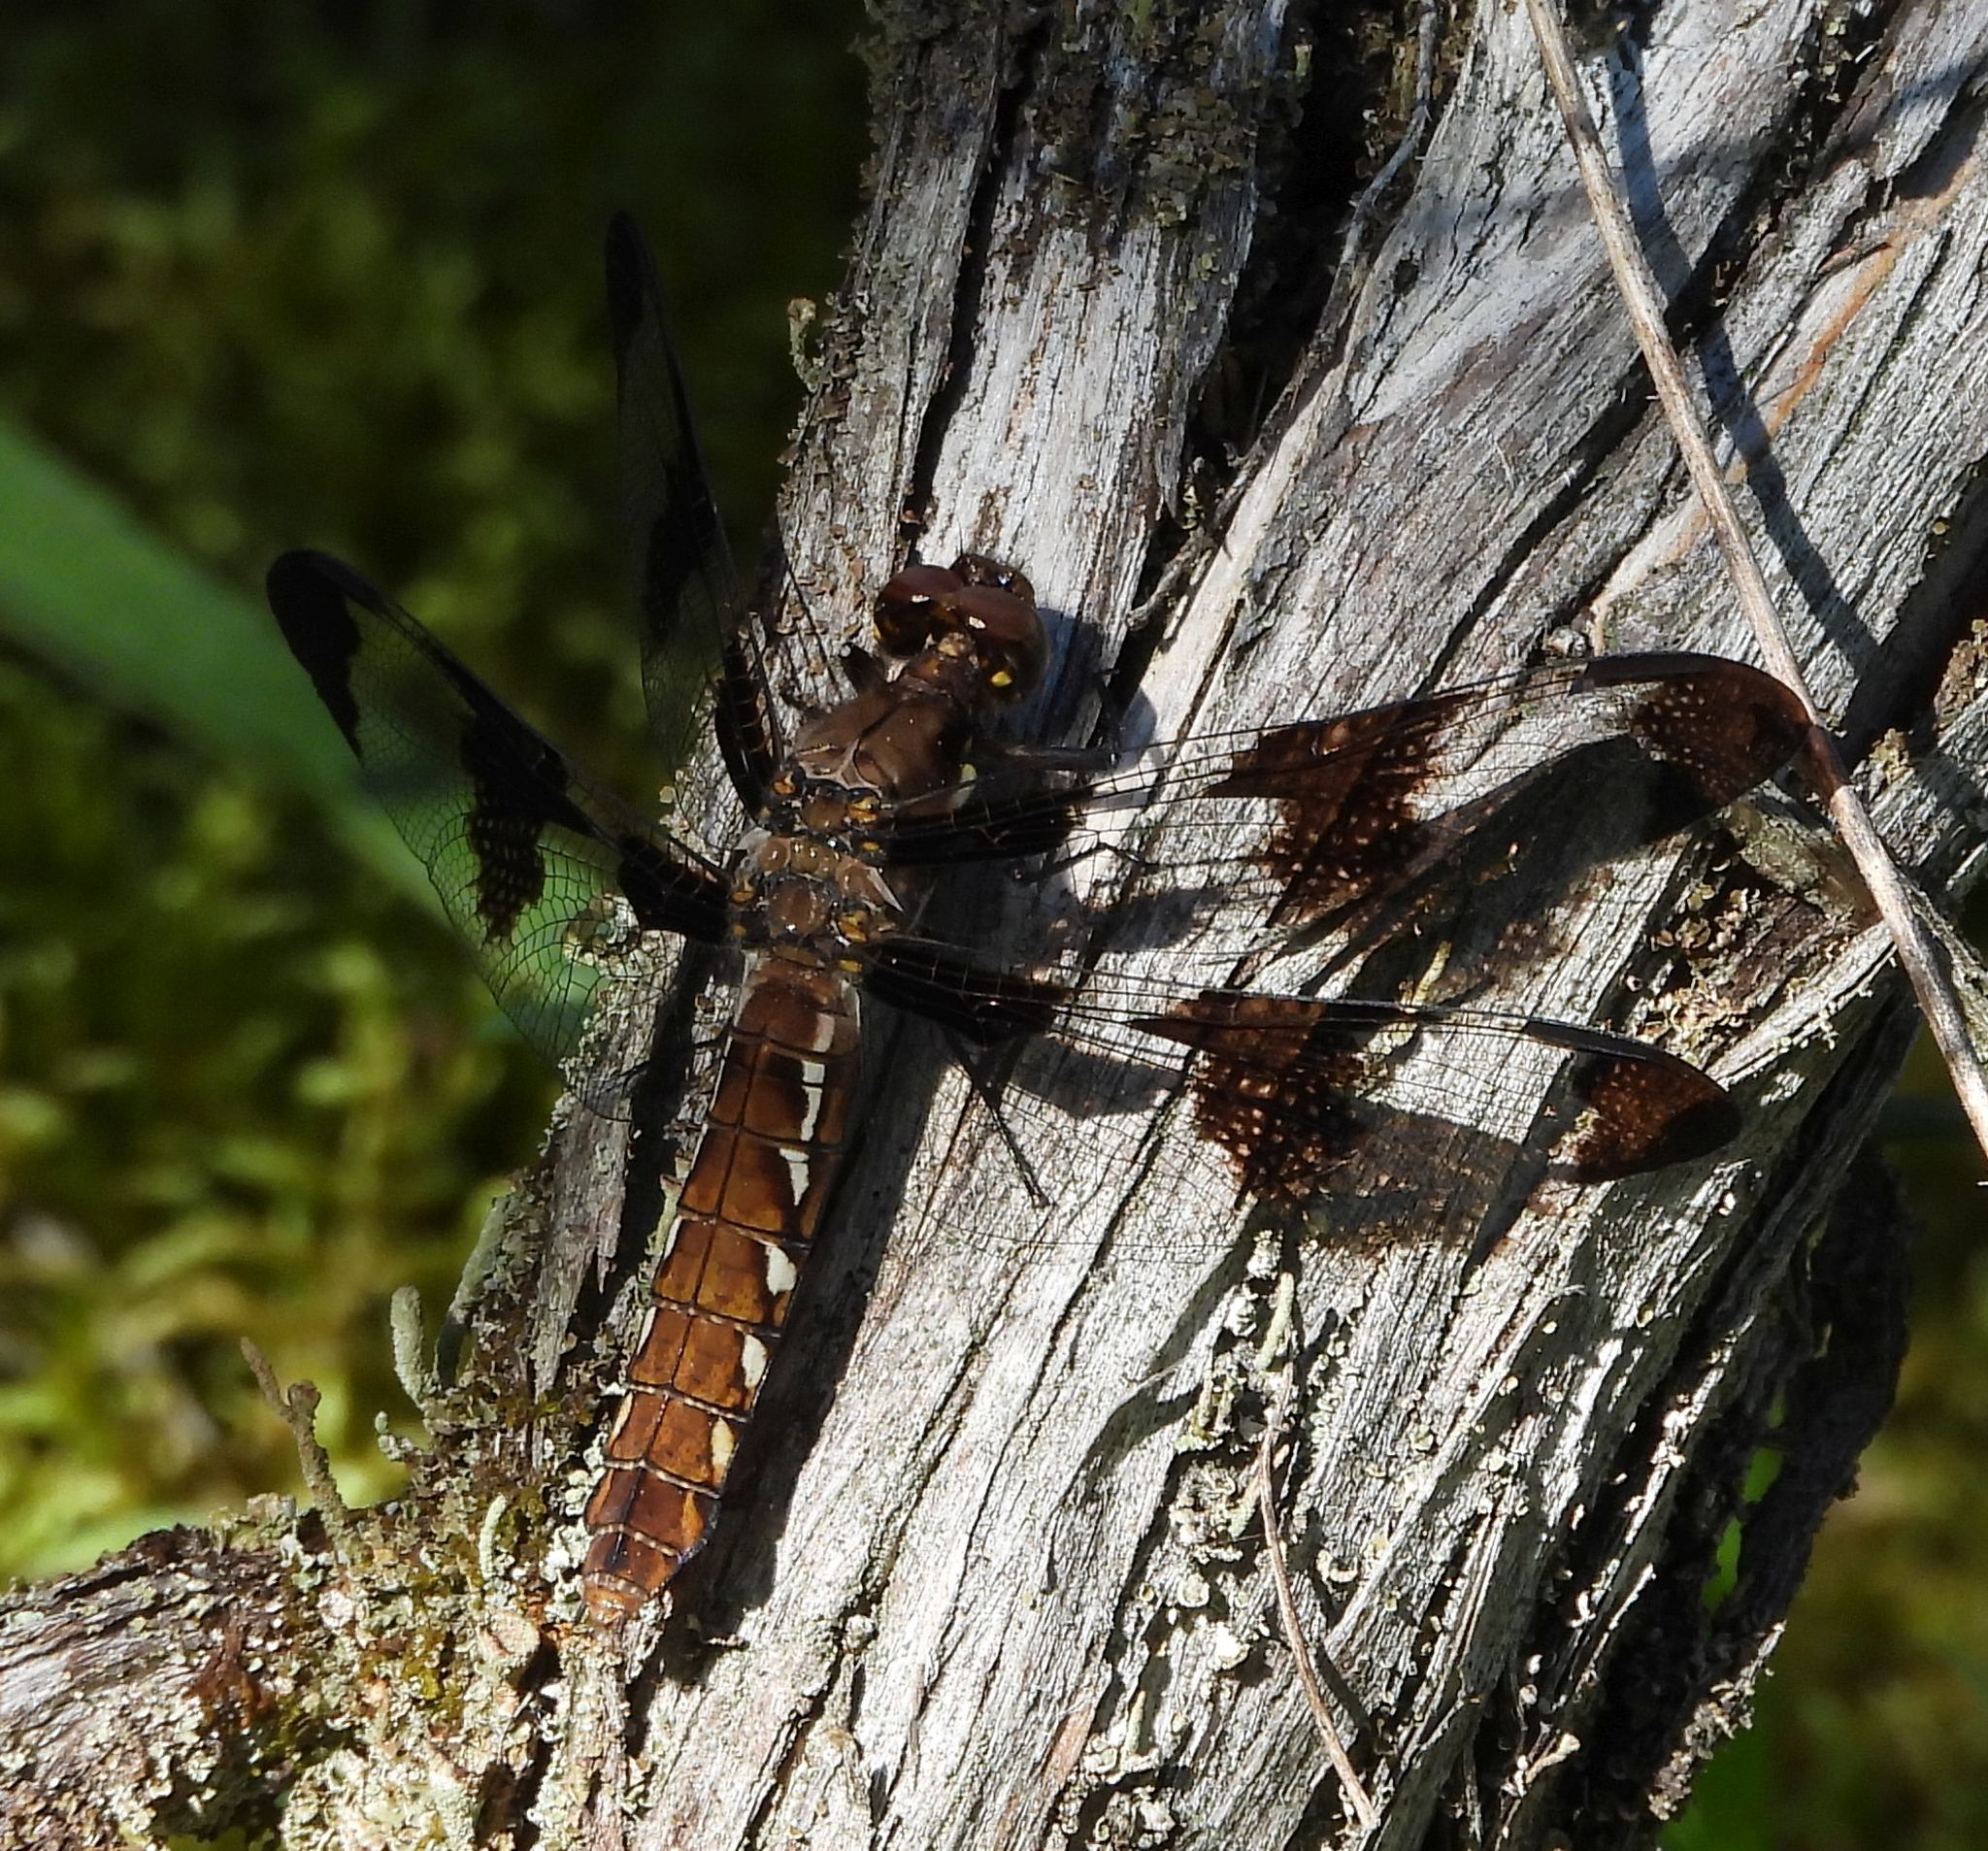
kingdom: Animalia
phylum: Arthropoda
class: Insecta
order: Odonata
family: Libellulidae
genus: Plathemis
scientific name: Plathemis lydia
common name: Common whitetail
